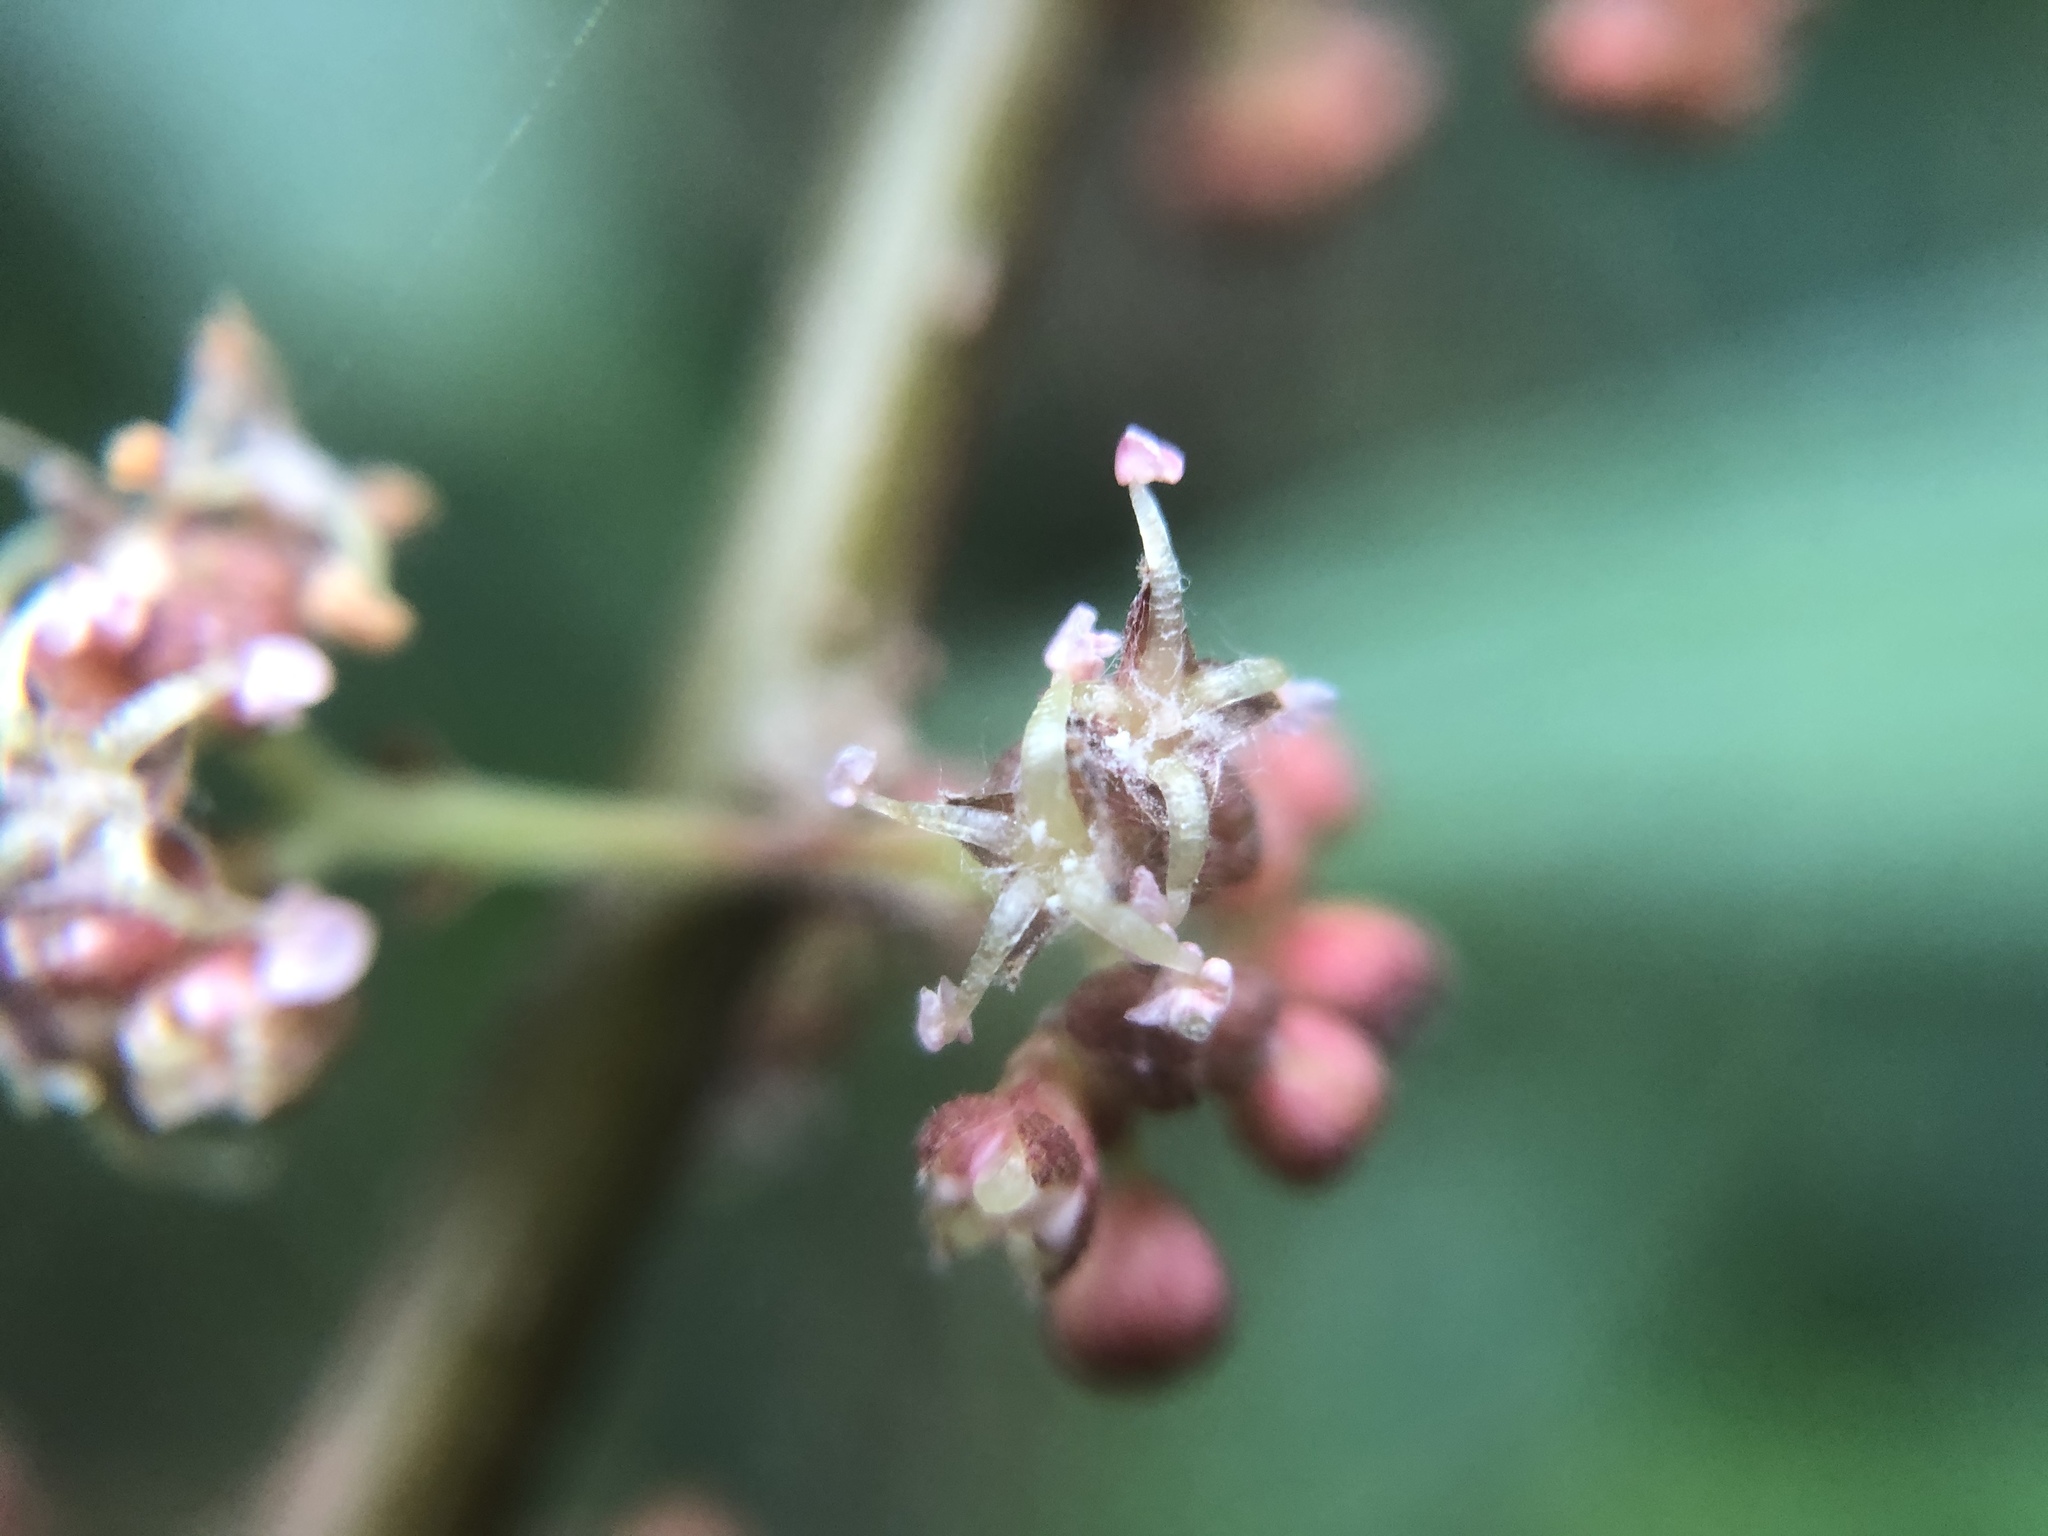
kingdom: Plantae
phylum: Tracheophyta
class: Magnoliopsida
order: Rosales
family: Urticaceae
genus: Debregeasia
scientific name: Debregeasia orientalis
